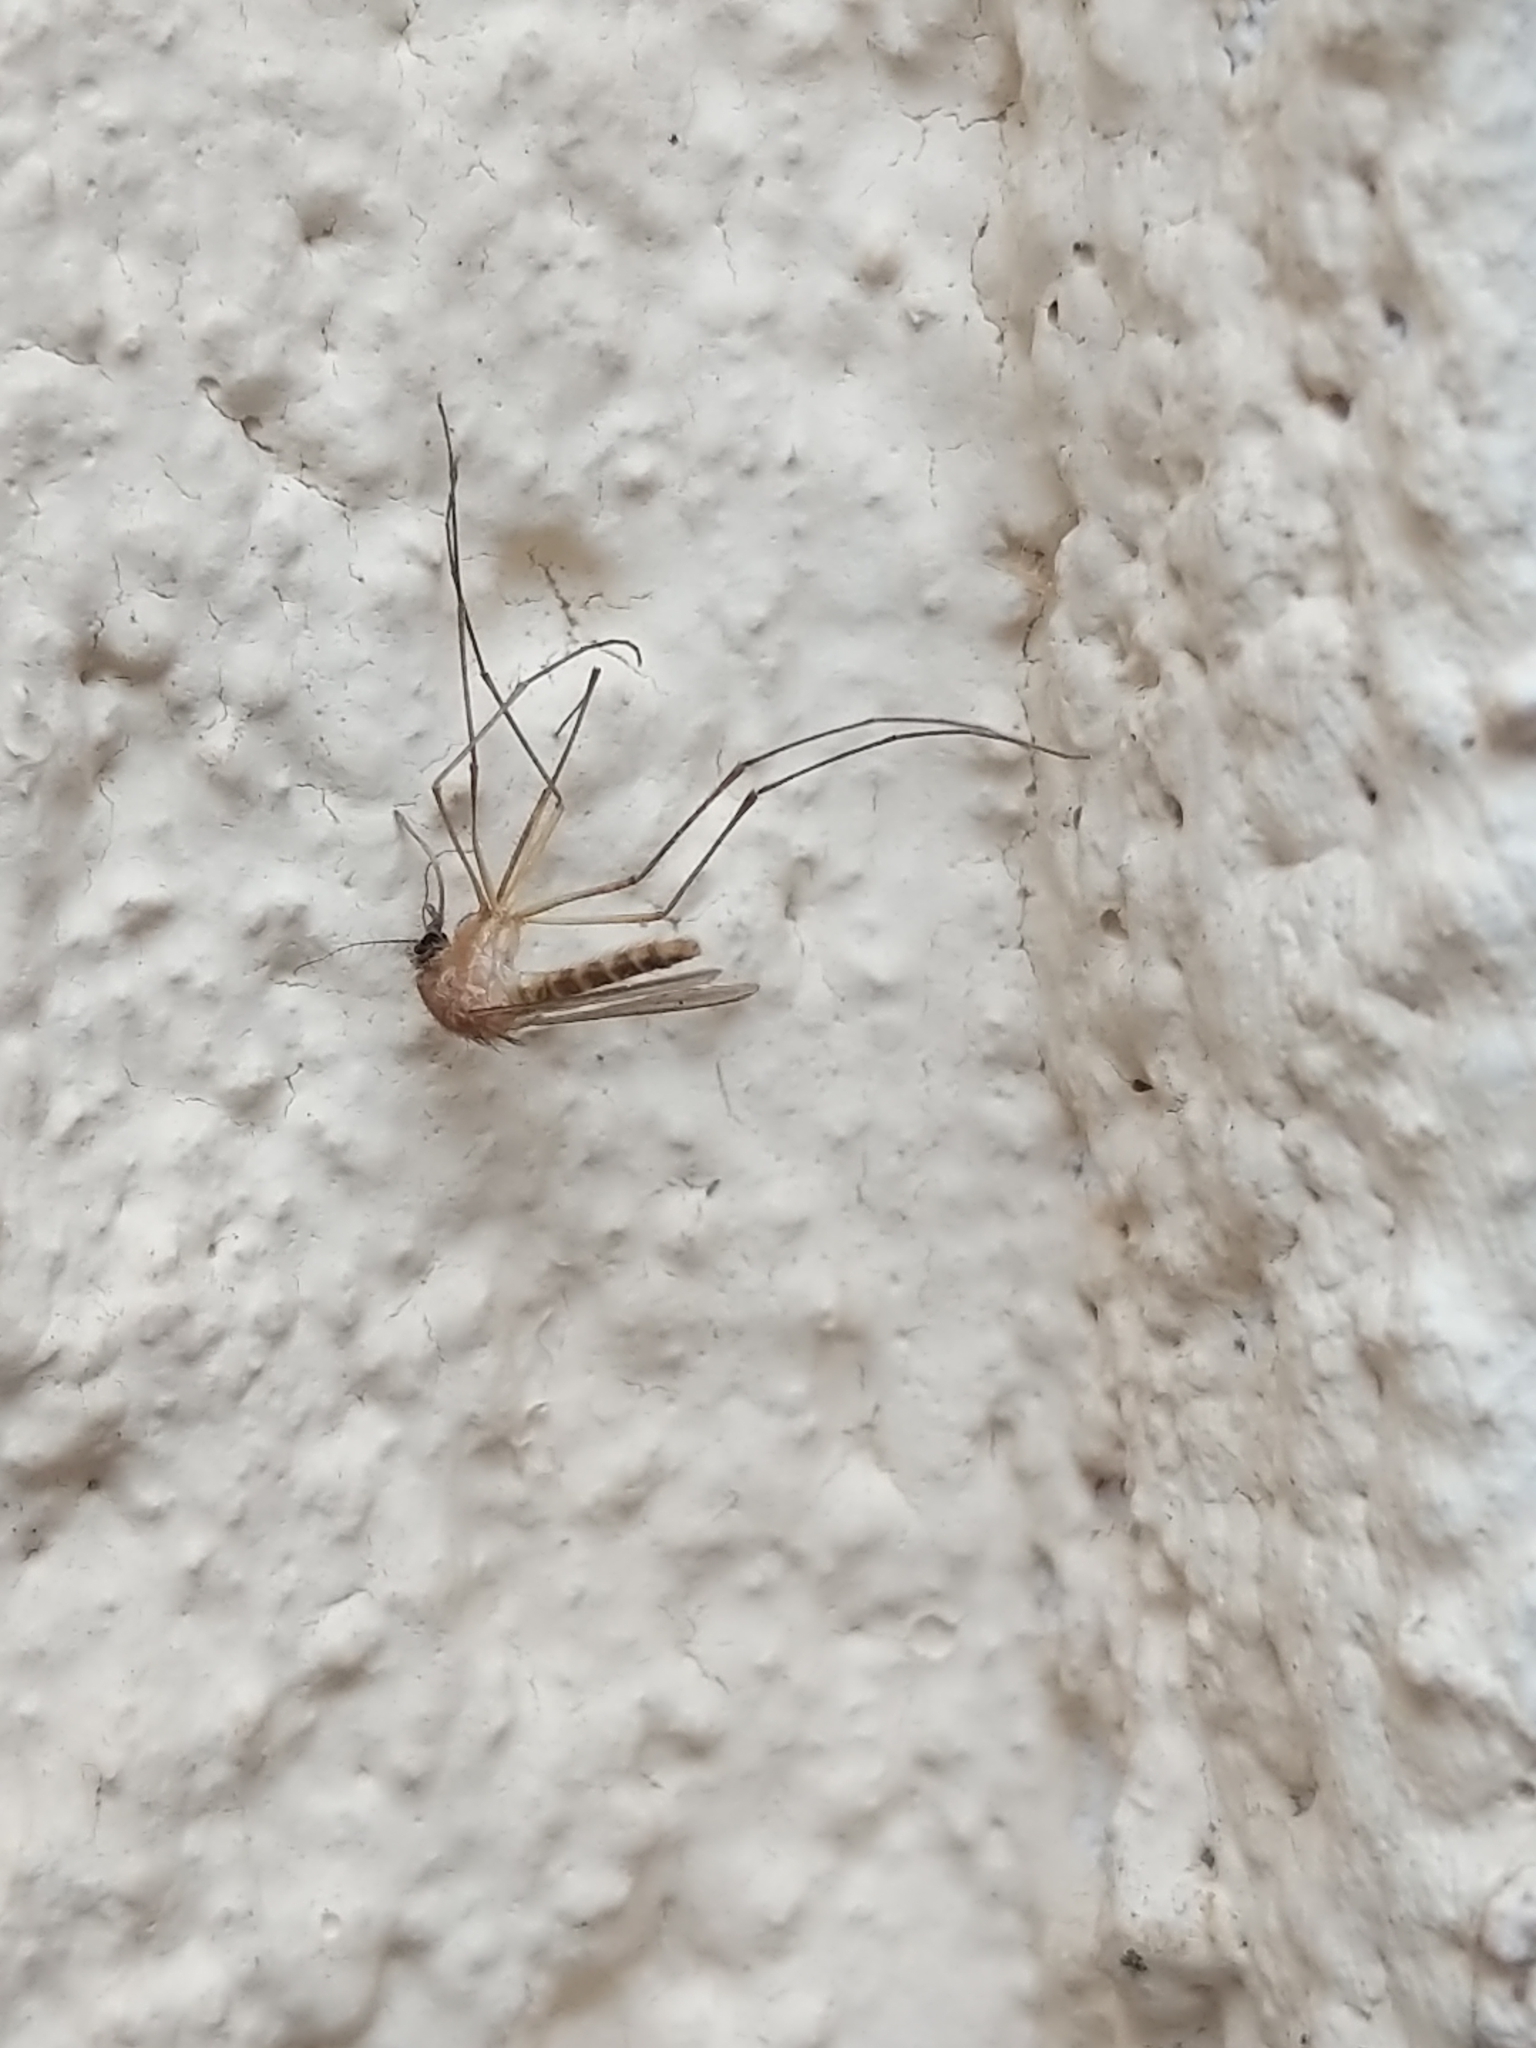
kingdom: Animalia
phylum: Arthropoda
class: Insecta
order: Diptera
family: Culicidae
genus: Culex
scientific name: Culex
